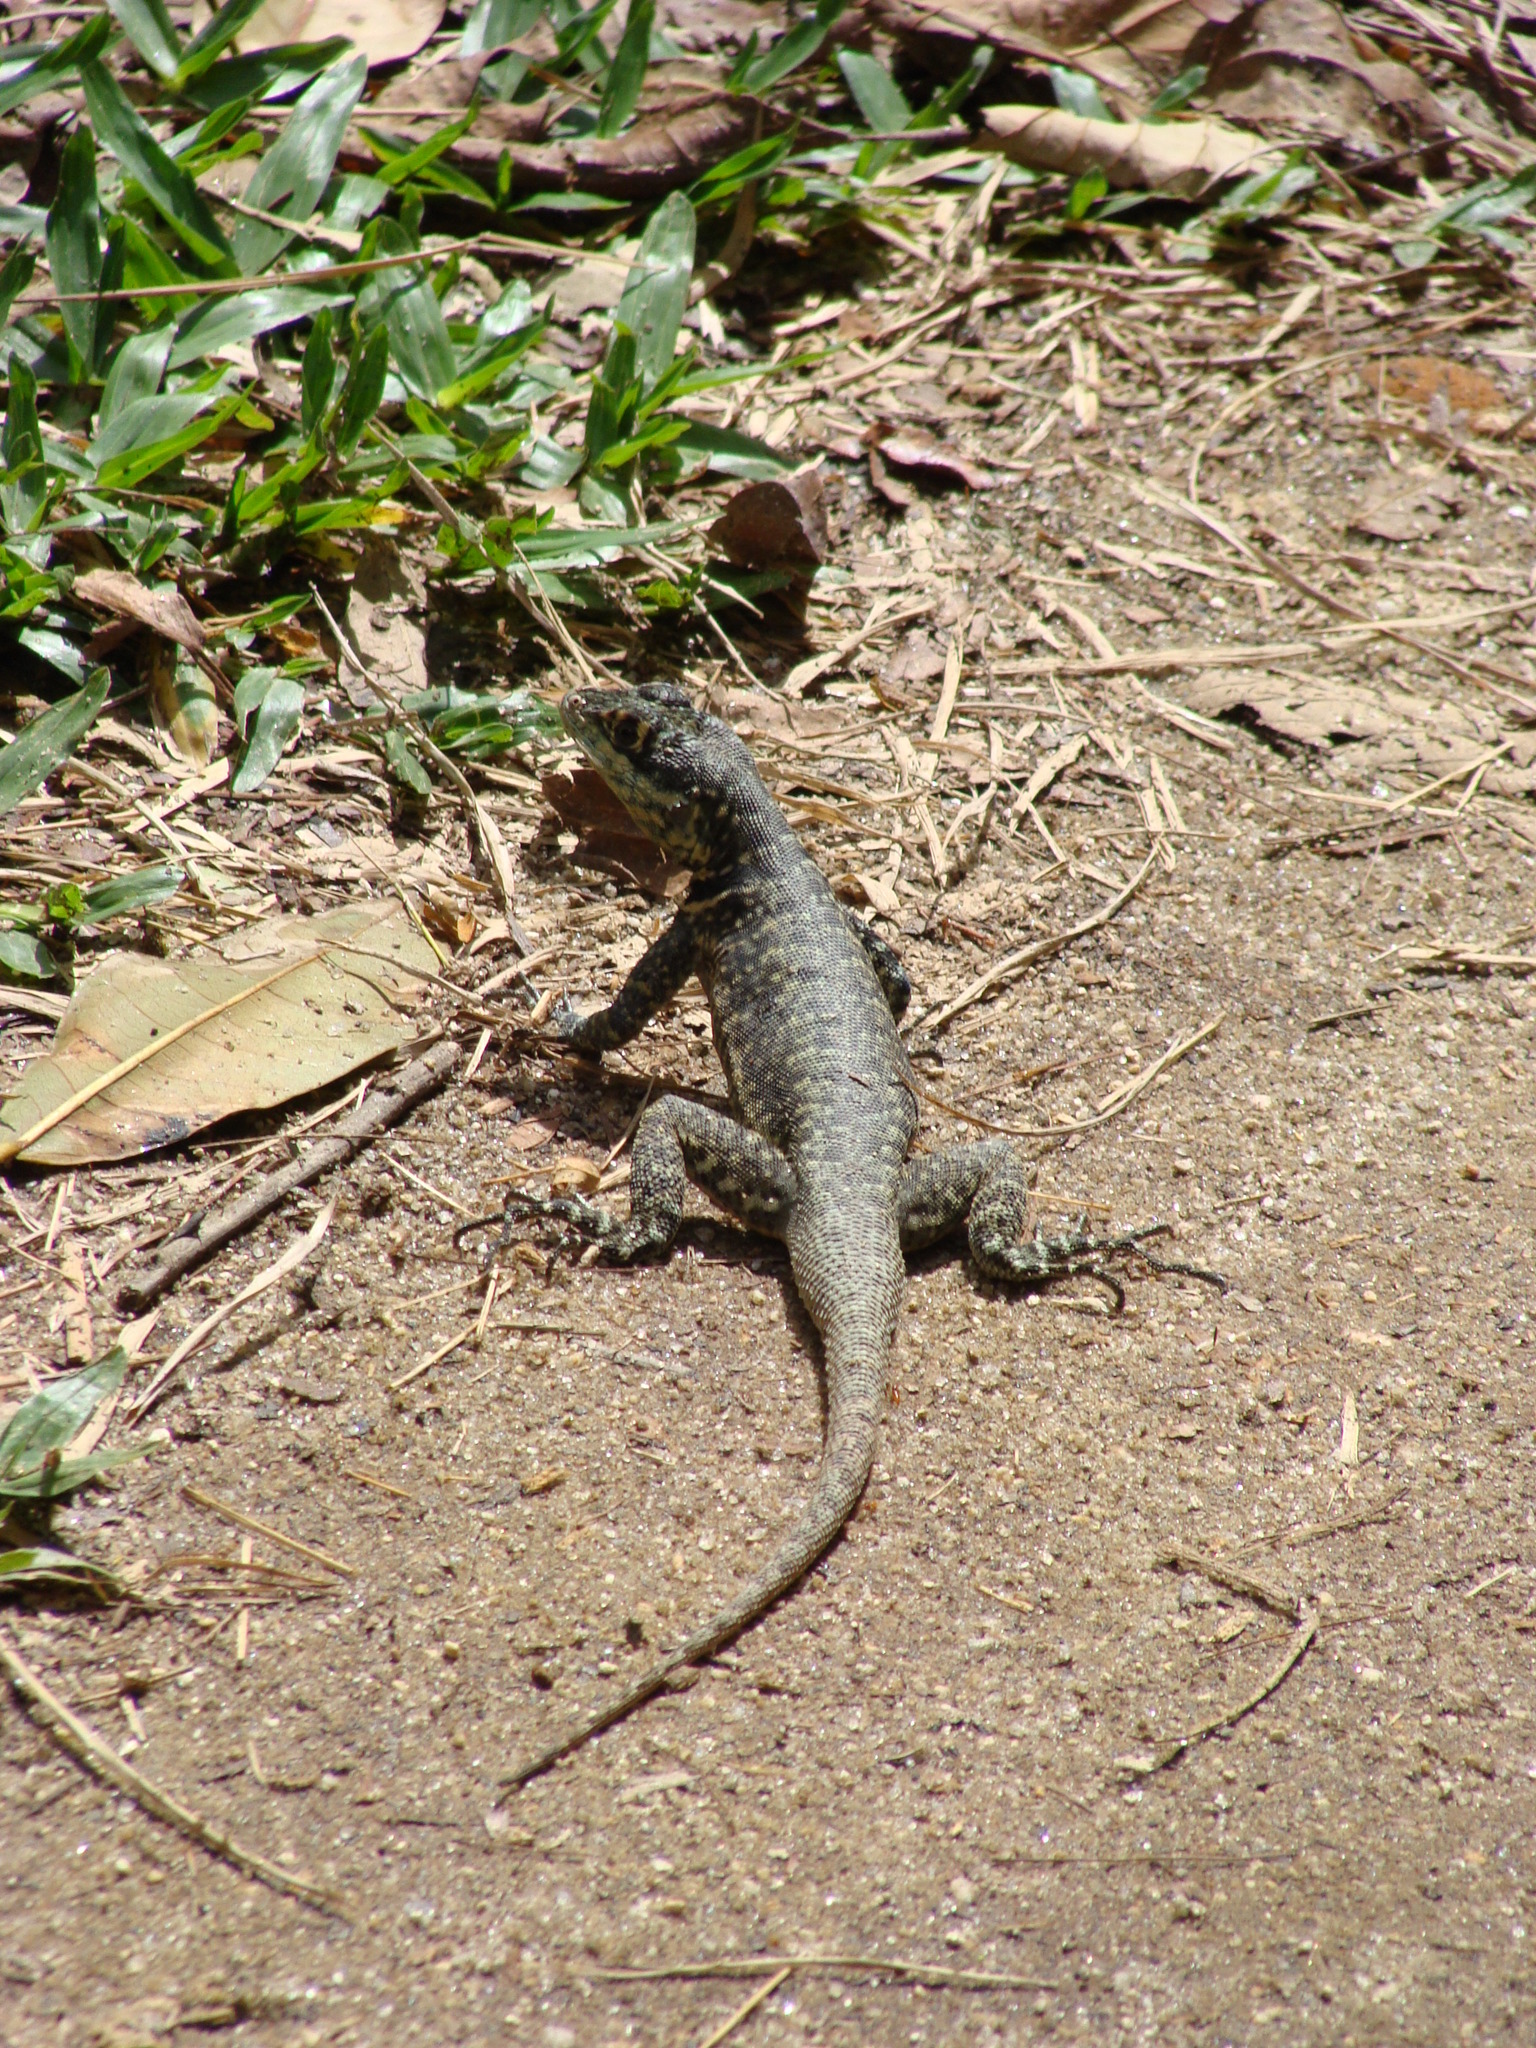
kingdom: Animalia
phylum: Chordata
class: Squamata
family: Tropiduridae
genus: Tropidurus
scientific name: Tropidurus torquatus
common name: Amazon lava lizard
